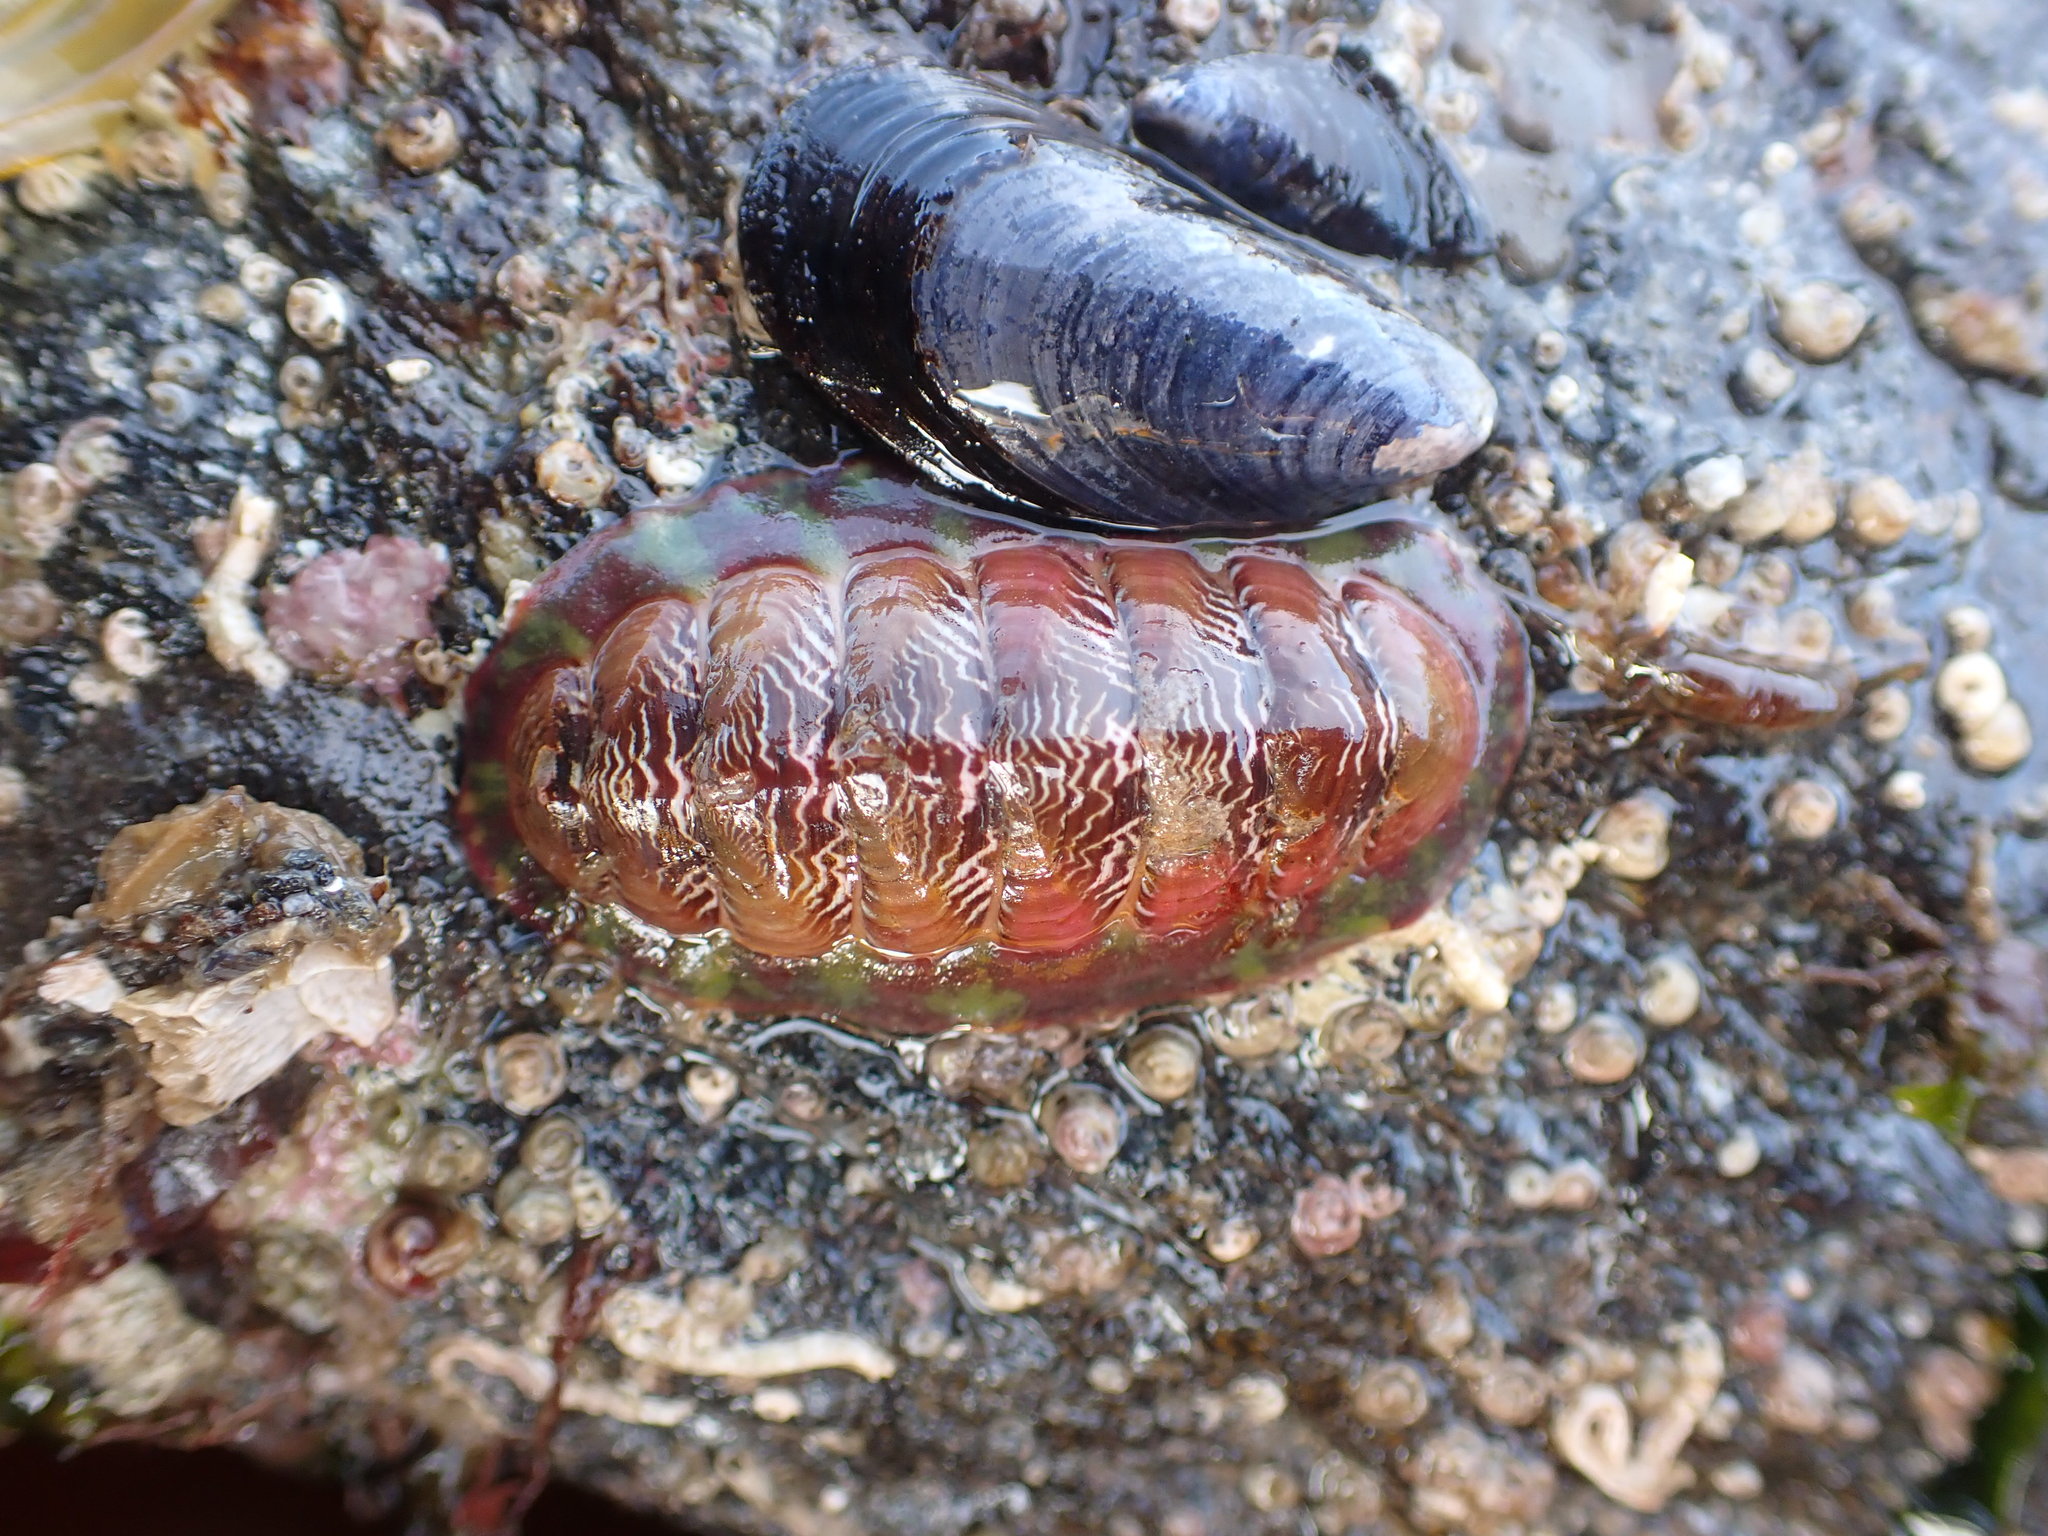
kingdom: Animalia
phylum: Mollusca
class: Polyplacophora
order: Chitonida
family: Tonicellidae
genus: Tonicella
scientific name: Tonicella insignis
